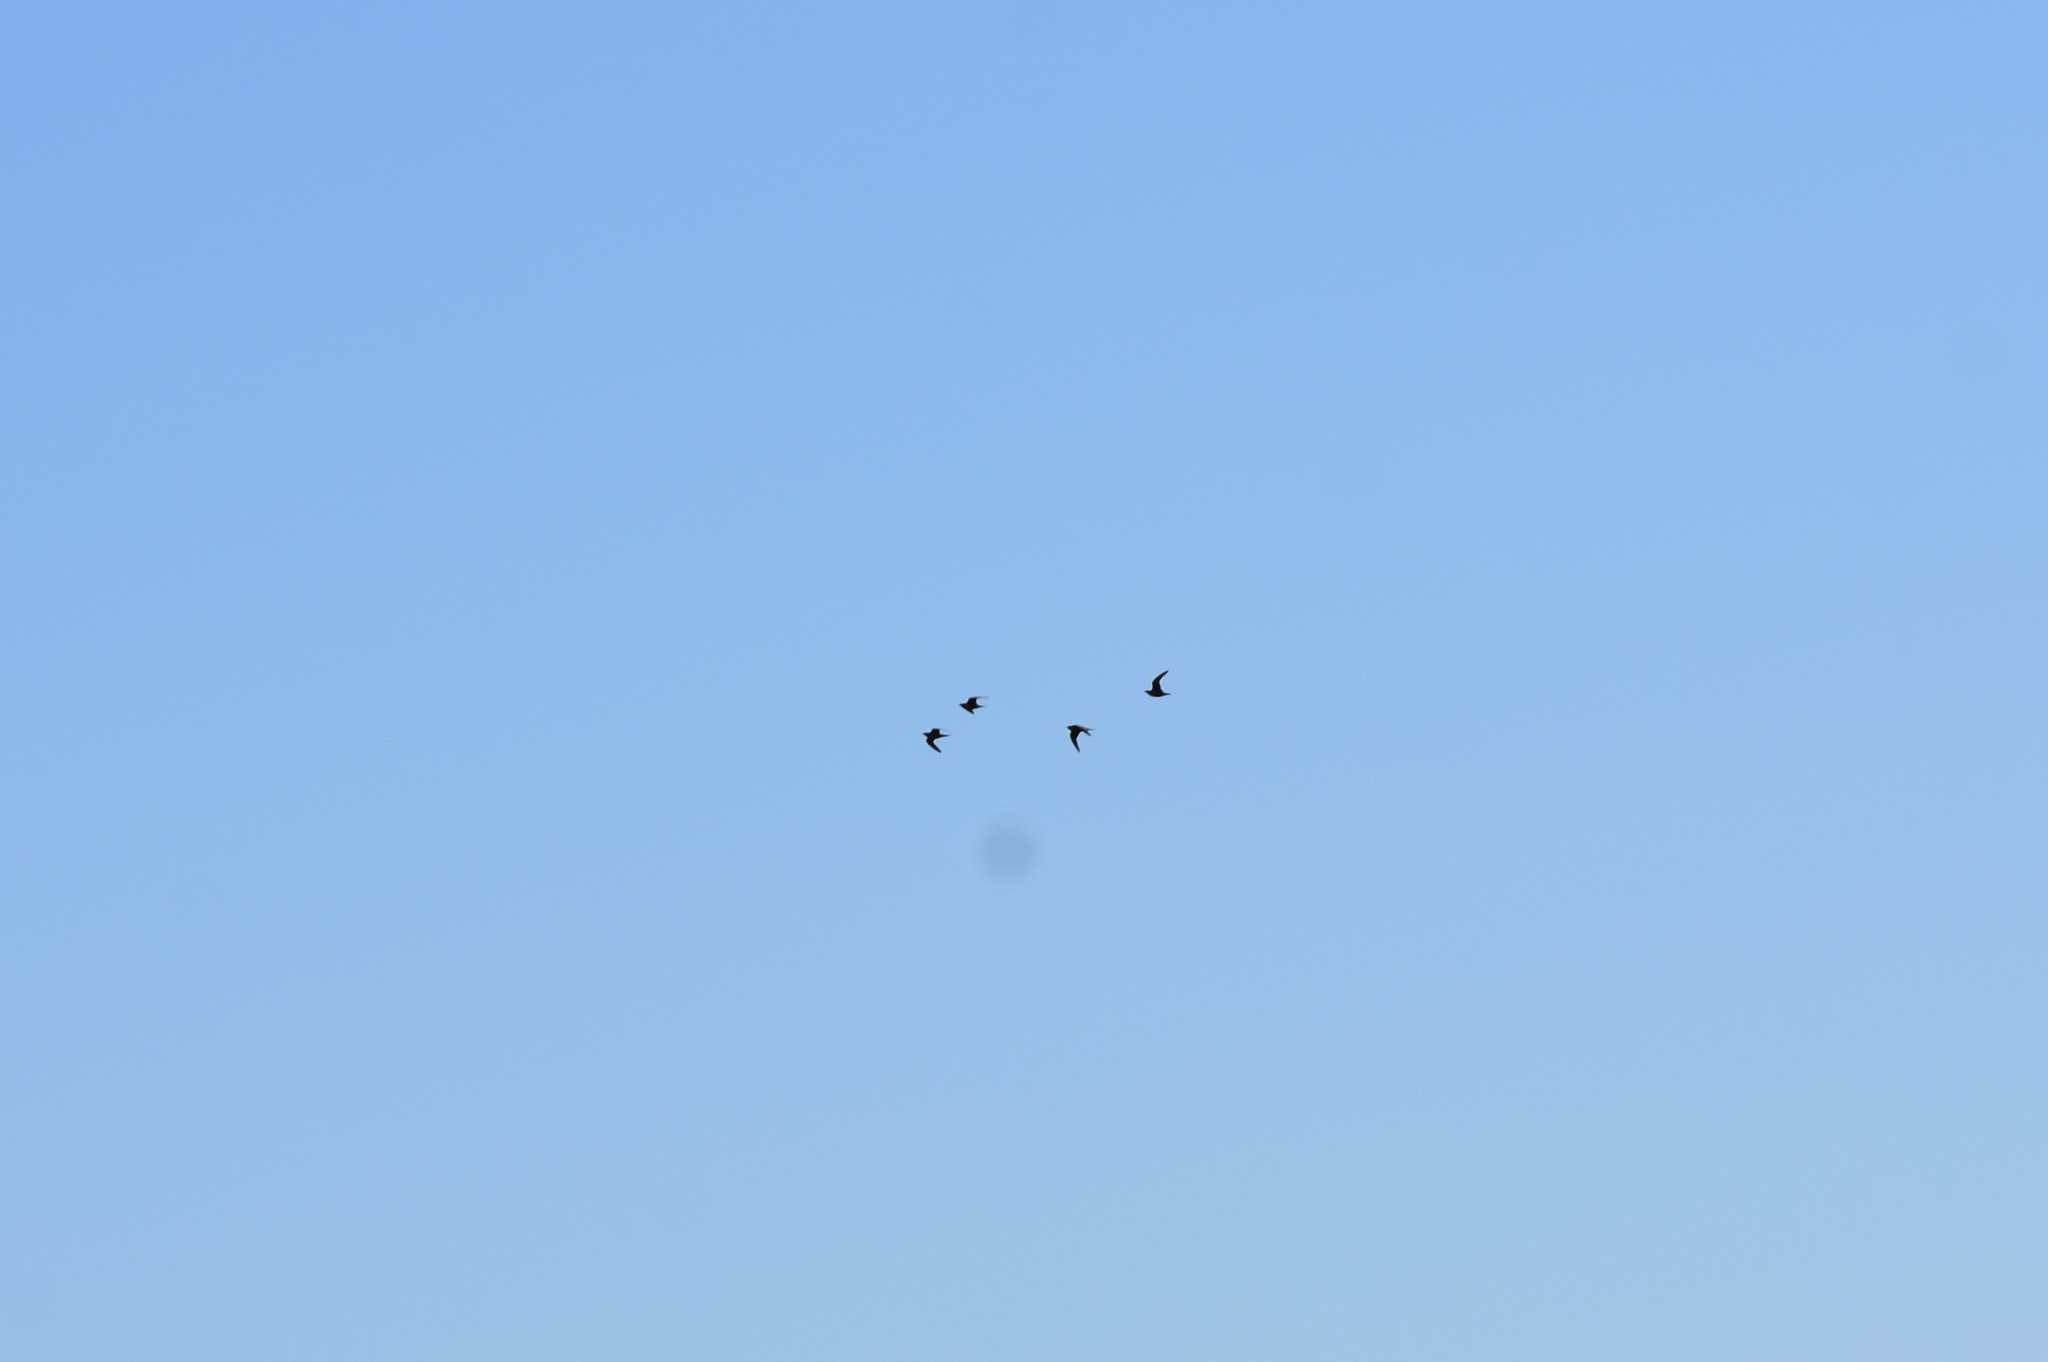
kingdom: Animalia
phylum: Chordata
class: Aves
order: Pteroclidiformes
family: Pteroclididae
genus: Pterocles
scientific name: Pterocles namaqua
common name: Namaqua sandgrouse
